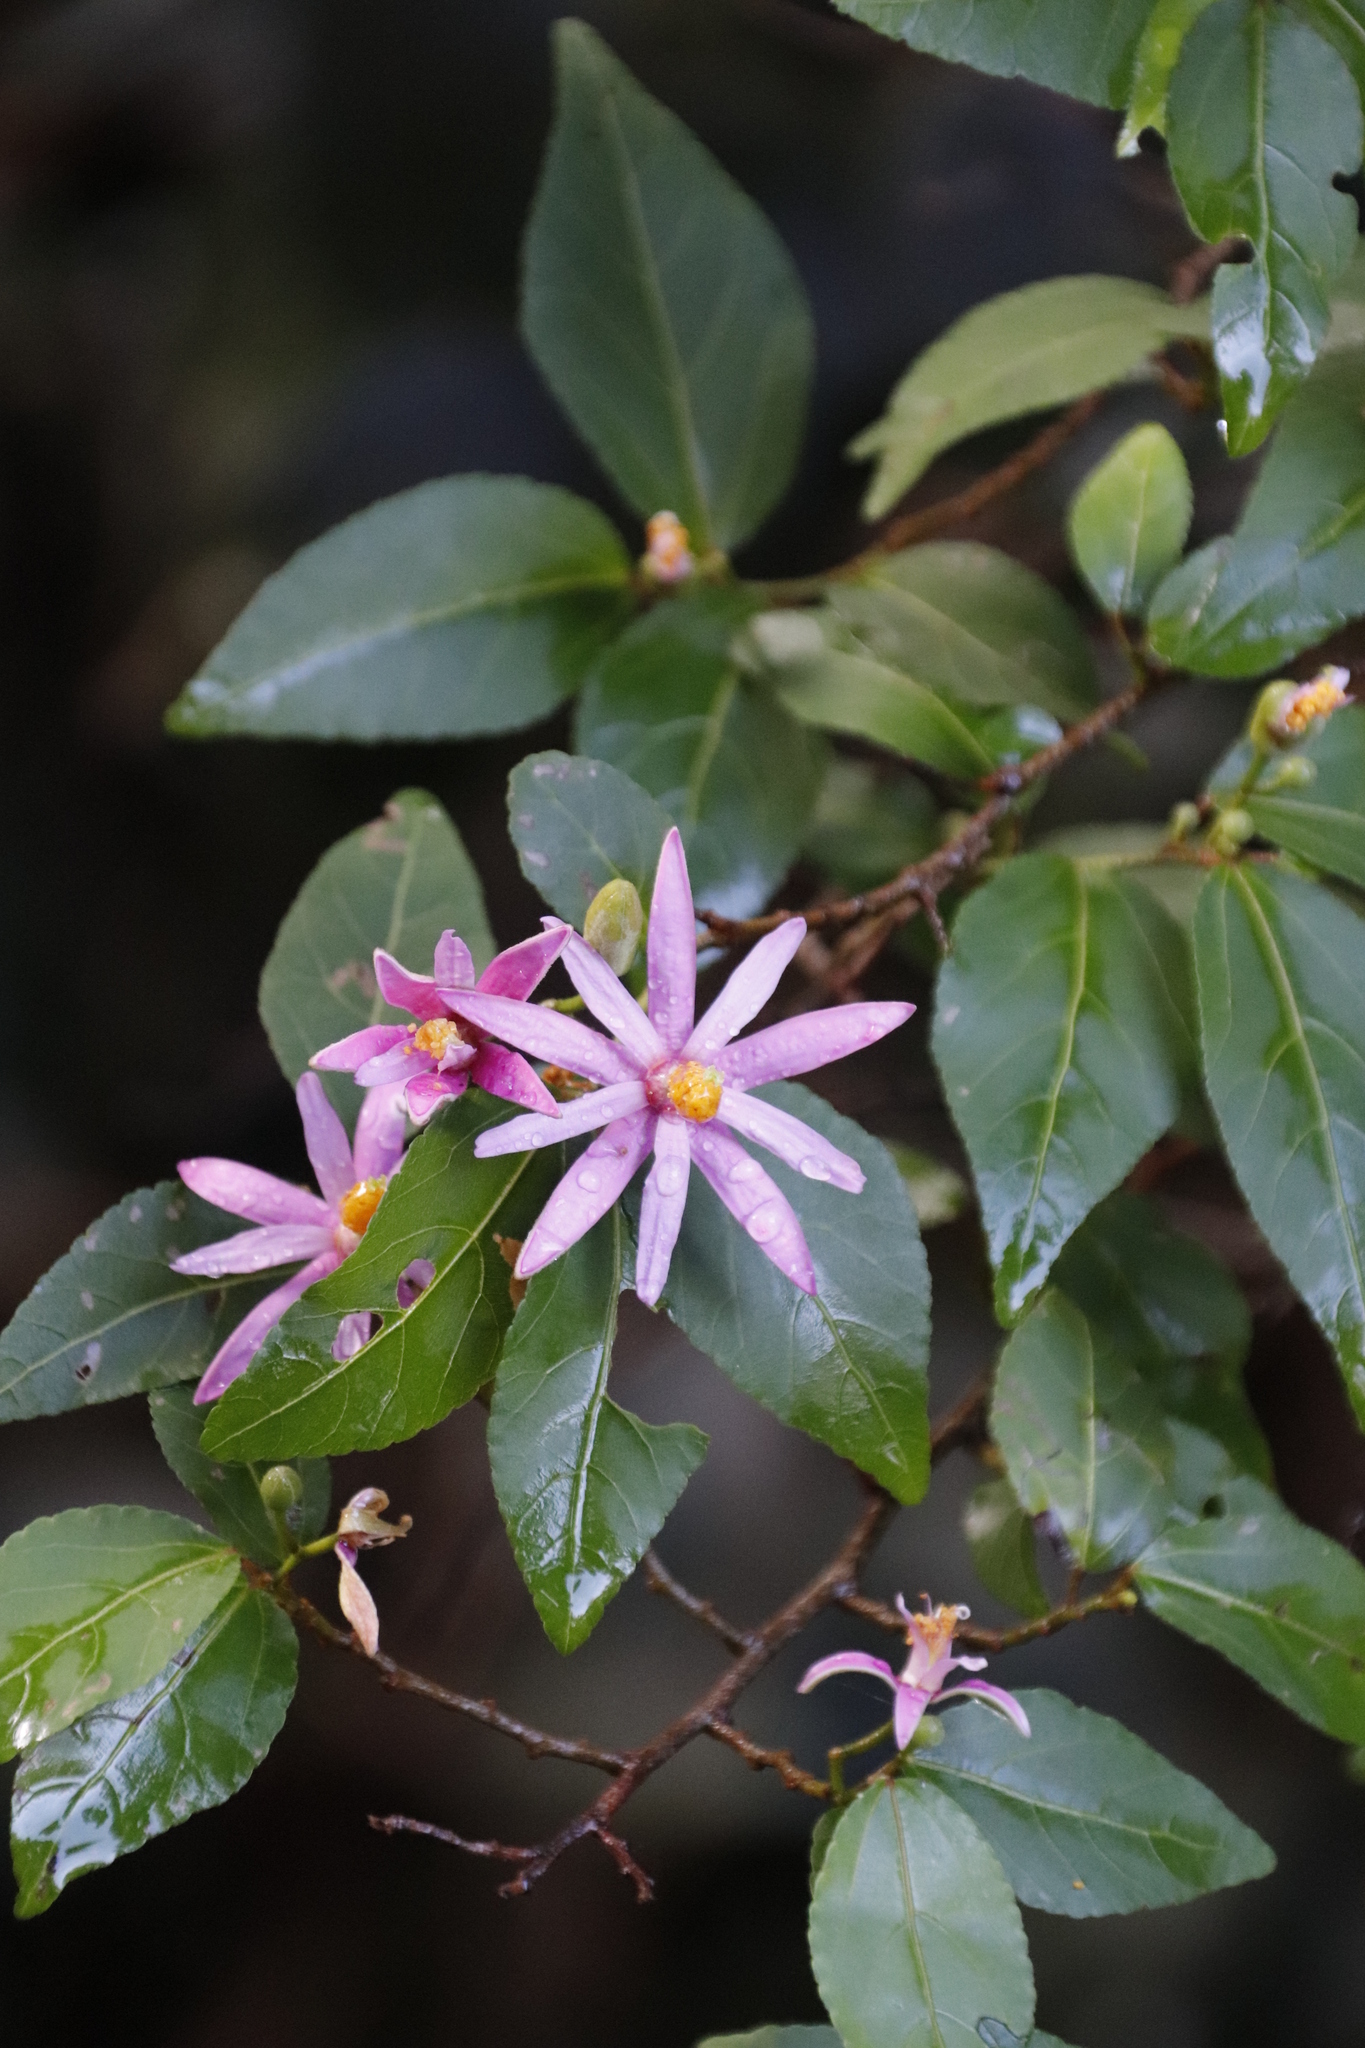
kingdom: Plantae
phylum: Tracheophyta
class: Magnoliopsida
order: Malvales
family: Malvaceae
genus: Grewia
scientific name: Grewia occidentalis
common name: Crossberry
